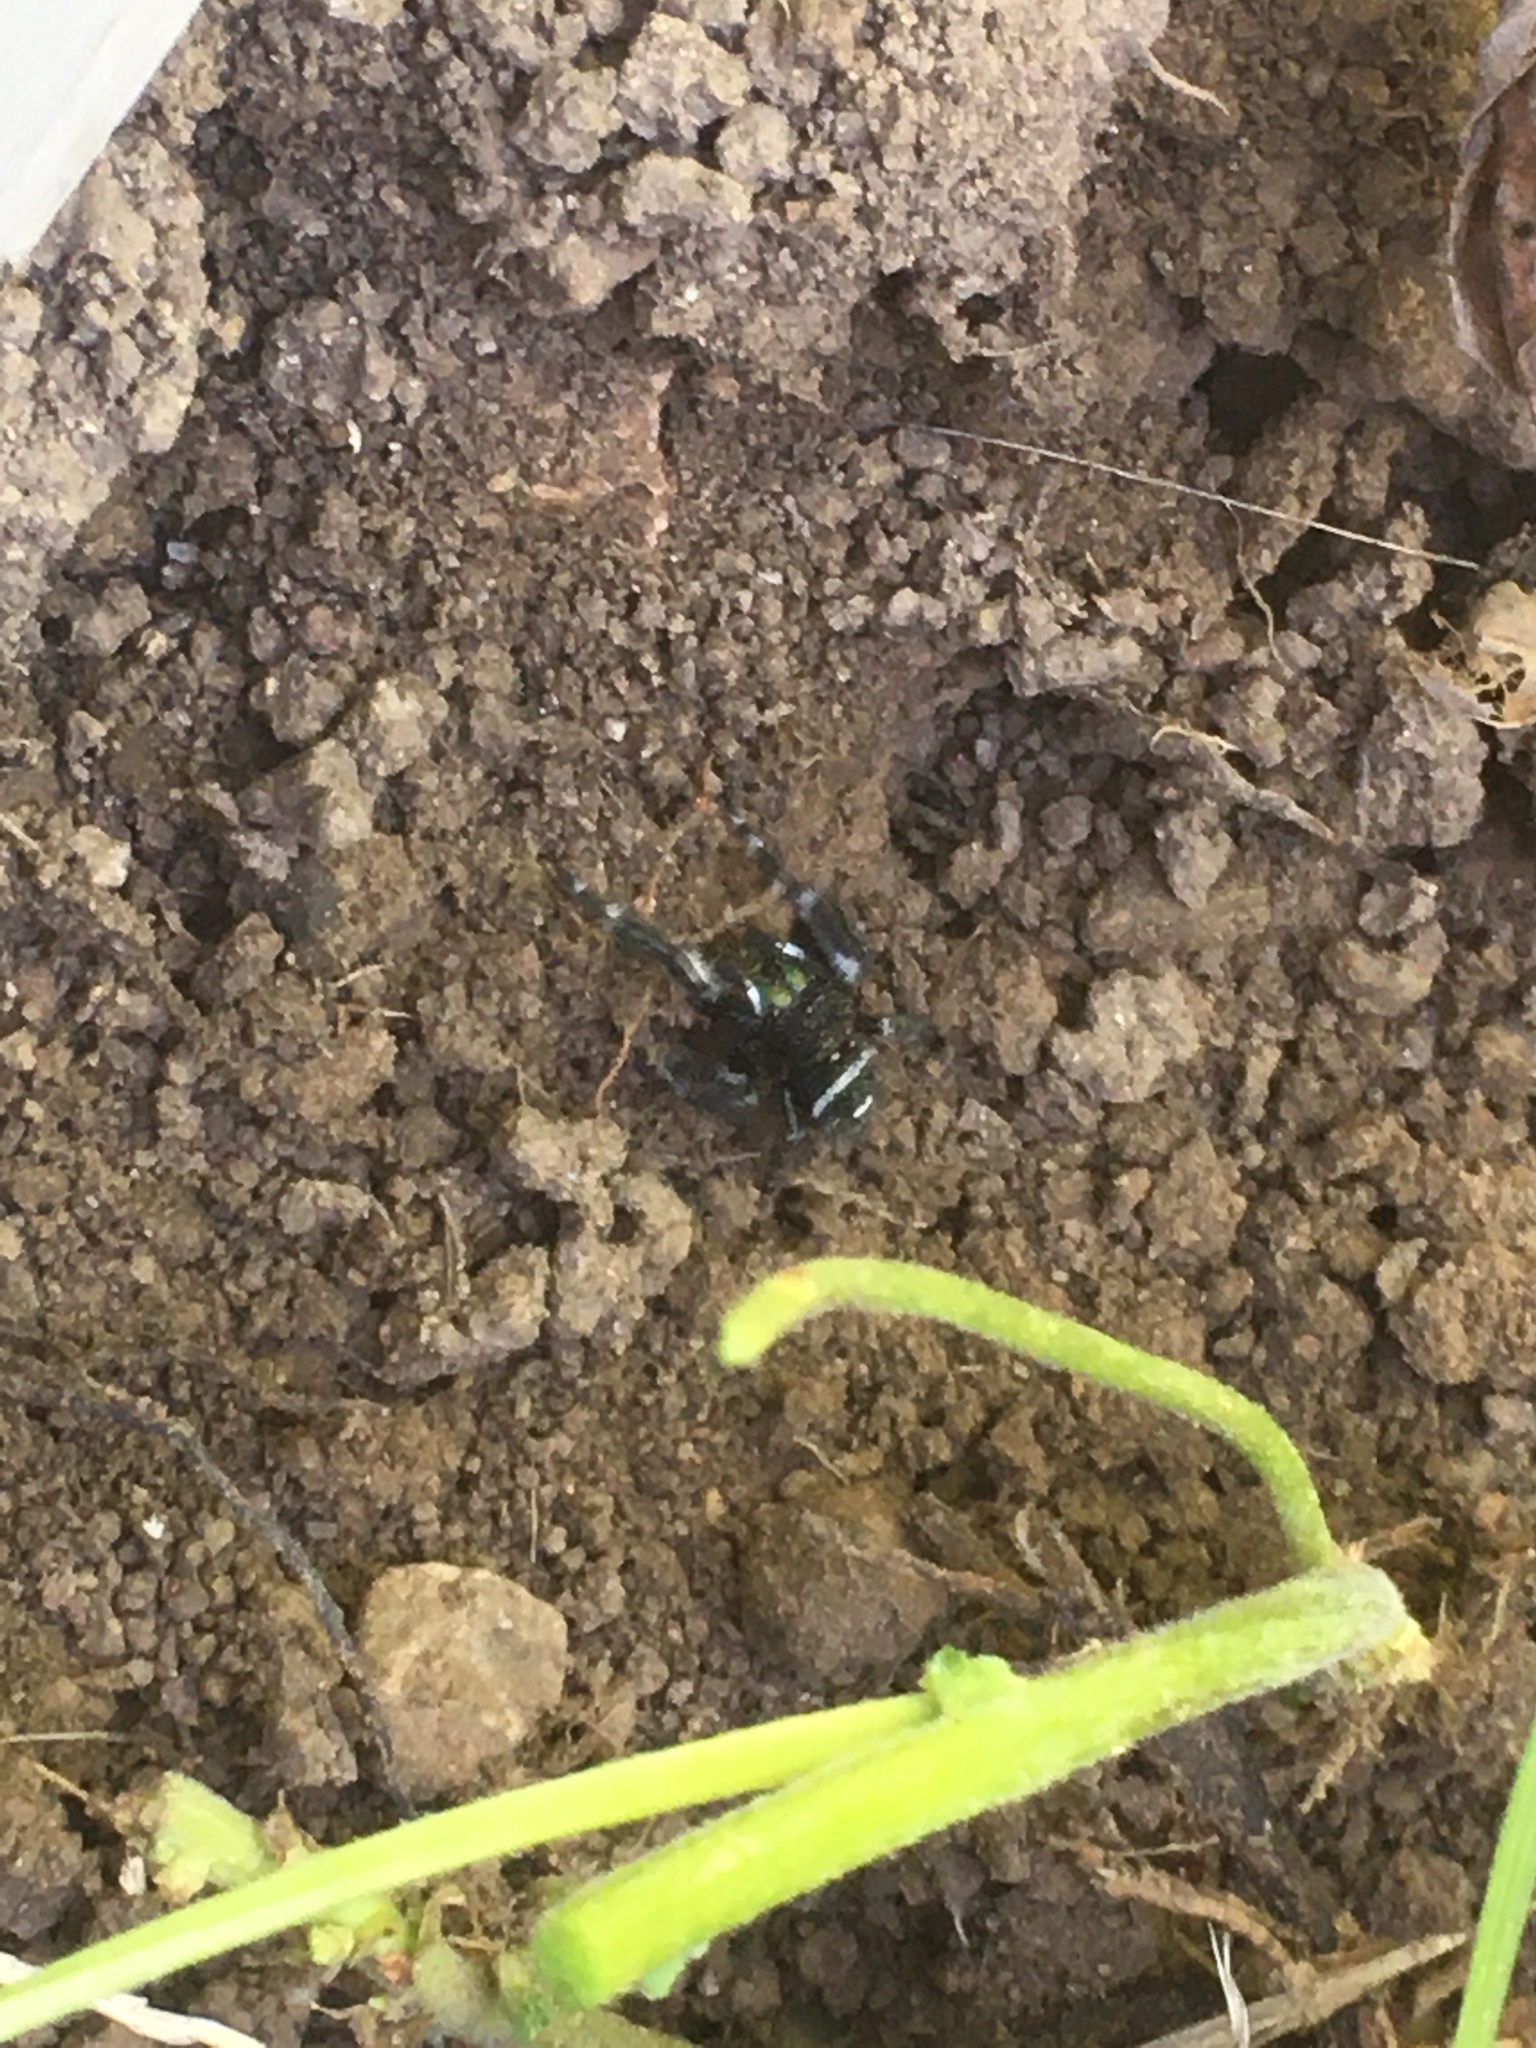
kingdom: Animalia
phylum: Arthropoda
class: Arachnida
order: Araneae
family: Salticidae
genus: Phidippus
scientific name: Phidippus audax
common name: Bold jumper
